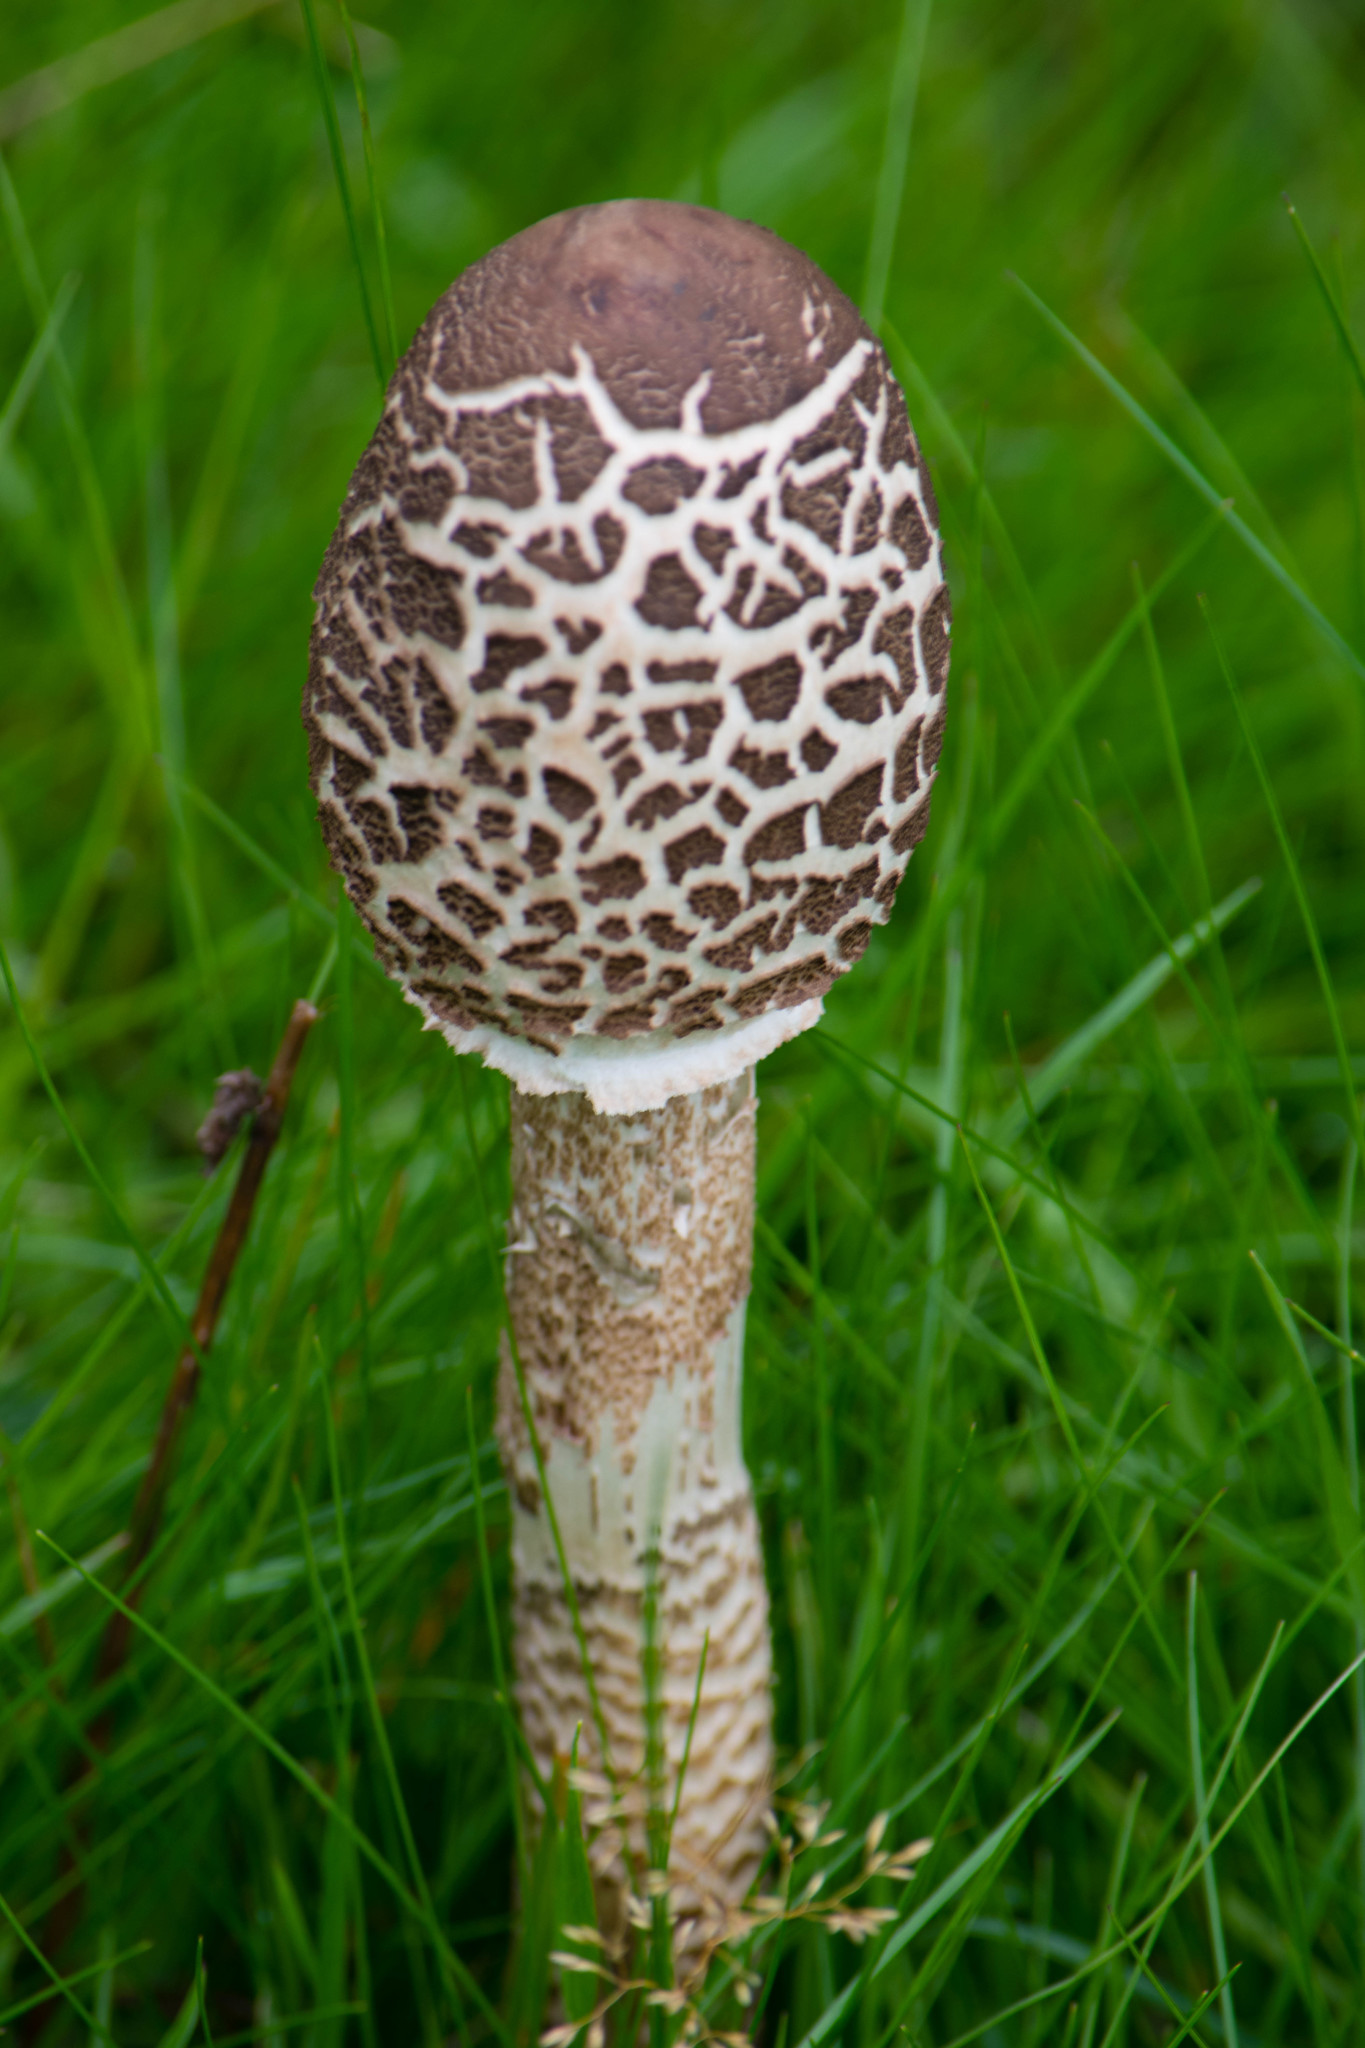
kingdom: Fungi
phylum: Basidiomycota
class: Agaricomycetes
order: Agaricales
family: Agaricaceae
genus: Macrolepiota
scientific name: Macrolepiota procera
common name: Parasol
